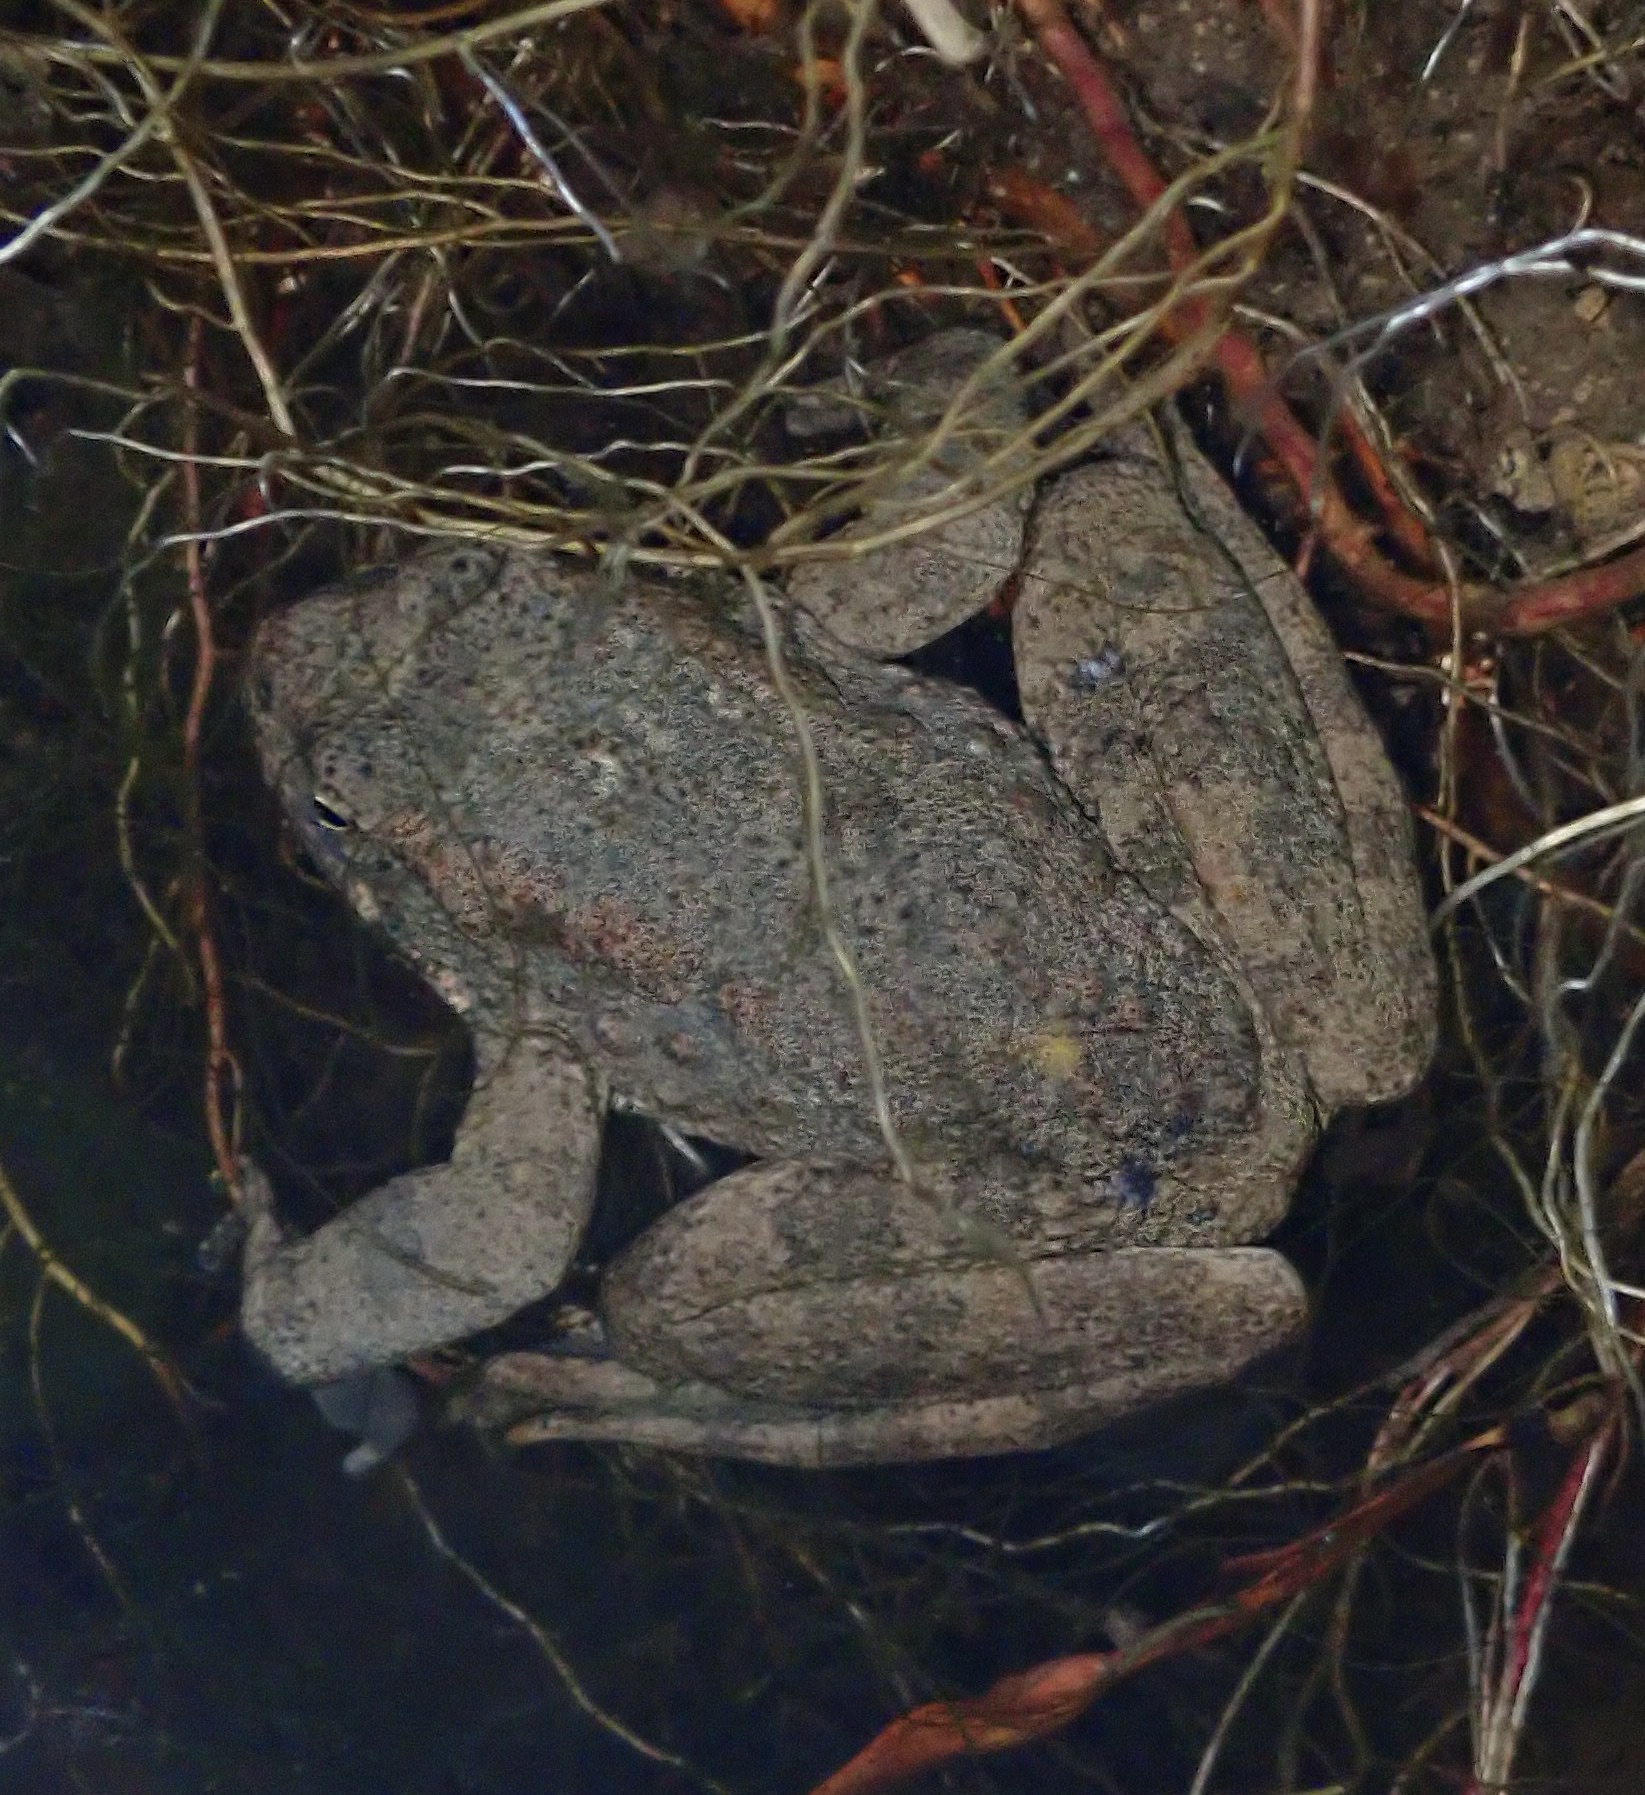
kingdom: Animalia
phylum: Chordata
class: Amphibia
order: Anura
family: Ranidae
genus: Rana
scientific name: Rana boylii
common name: Foothill yellow-legged frog
